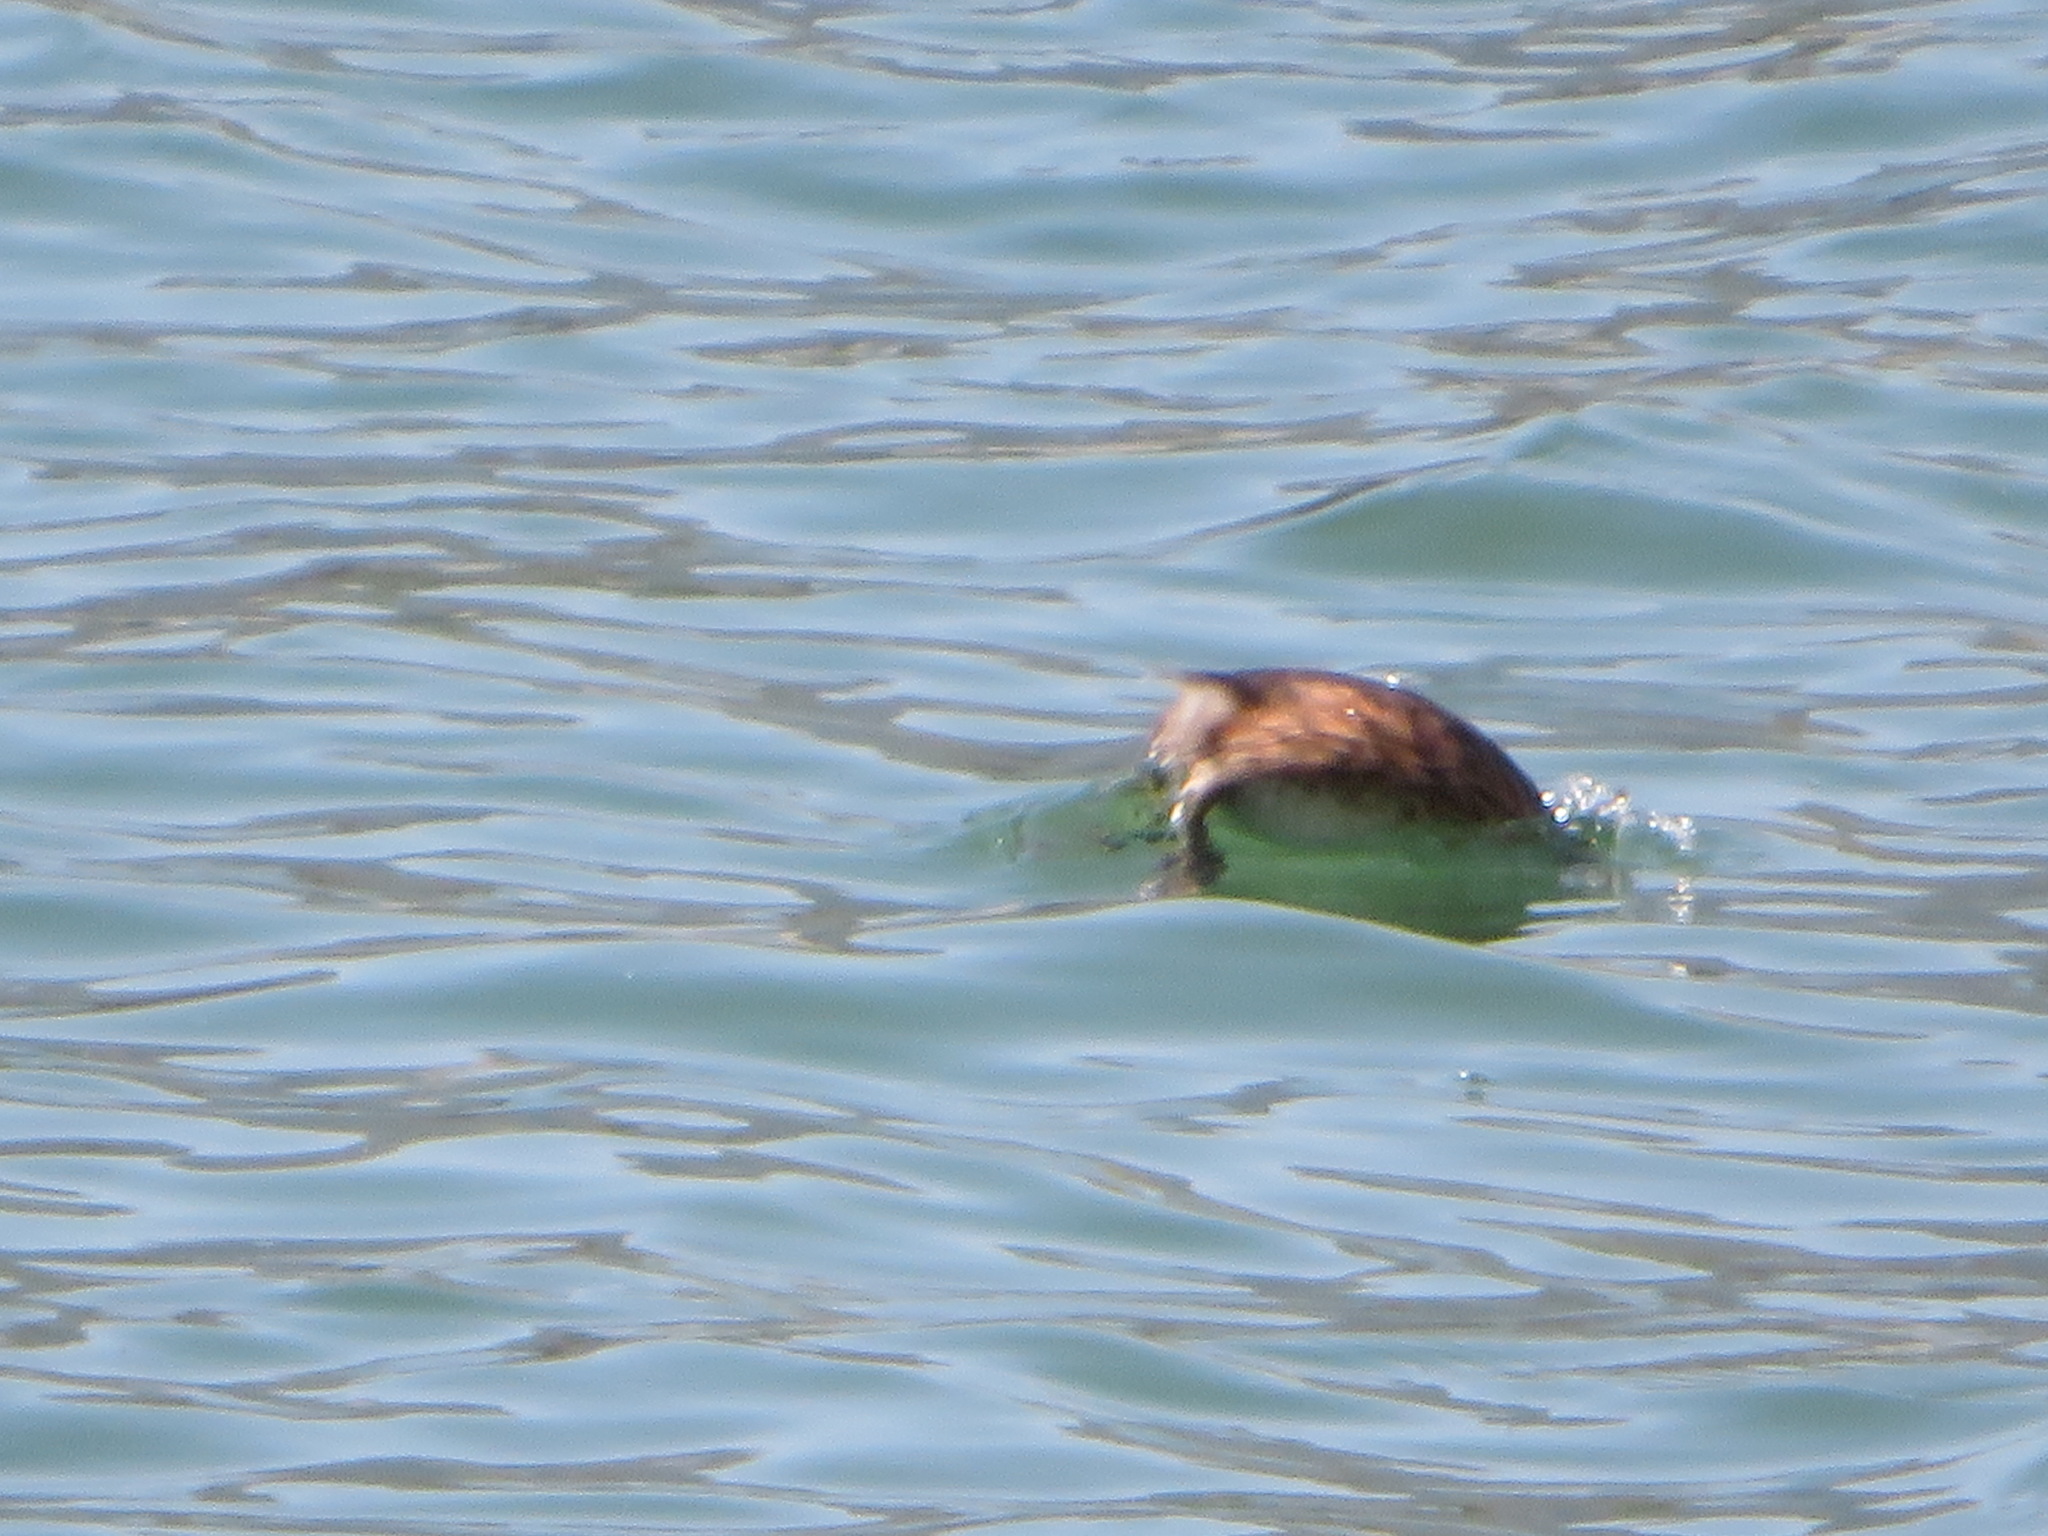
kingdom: Animalia
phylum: Chordata
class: Aves
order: Podicipediformes
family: Podicipedidae
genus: Tachybaptus
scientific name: Tachybaptus ruficollis
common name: Little grebe
